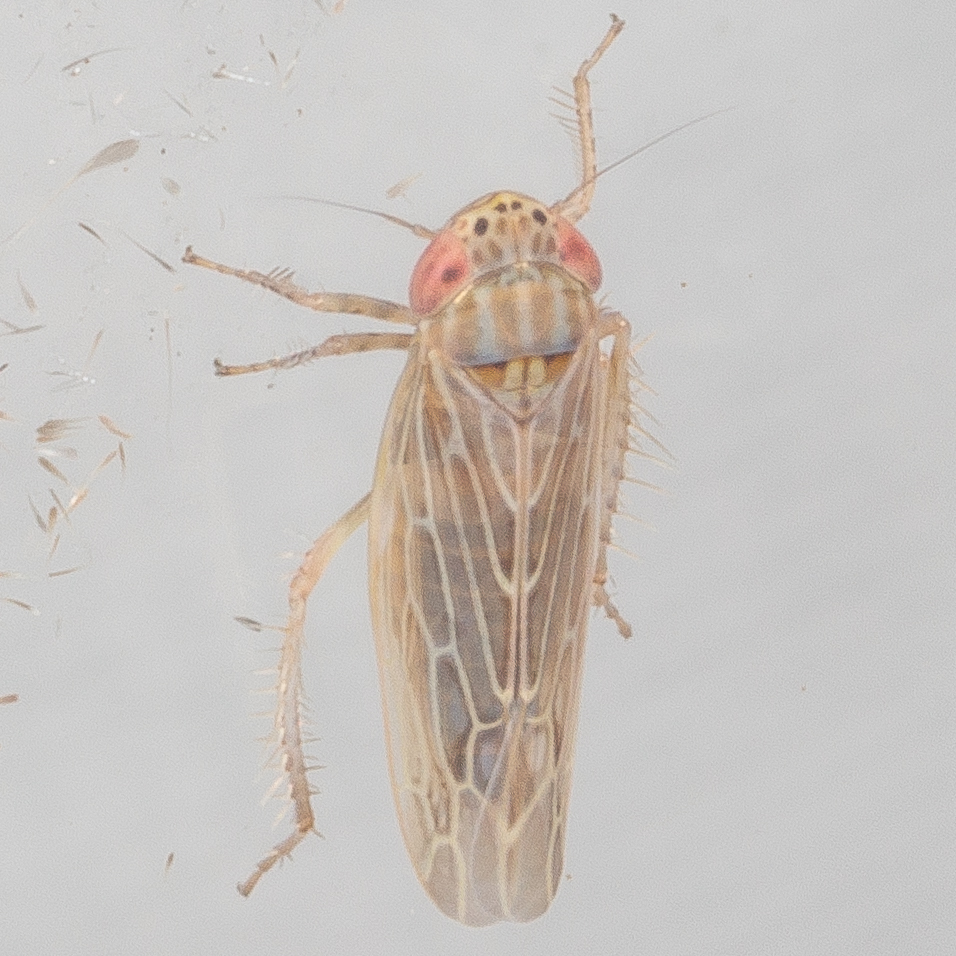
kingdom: Animalia
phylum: Arthropoda
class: Insecta
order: Hemiptera
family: Cicadellidae
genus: Graminella
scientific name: Graminella sonora
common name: Lesser lawn leafhopper
